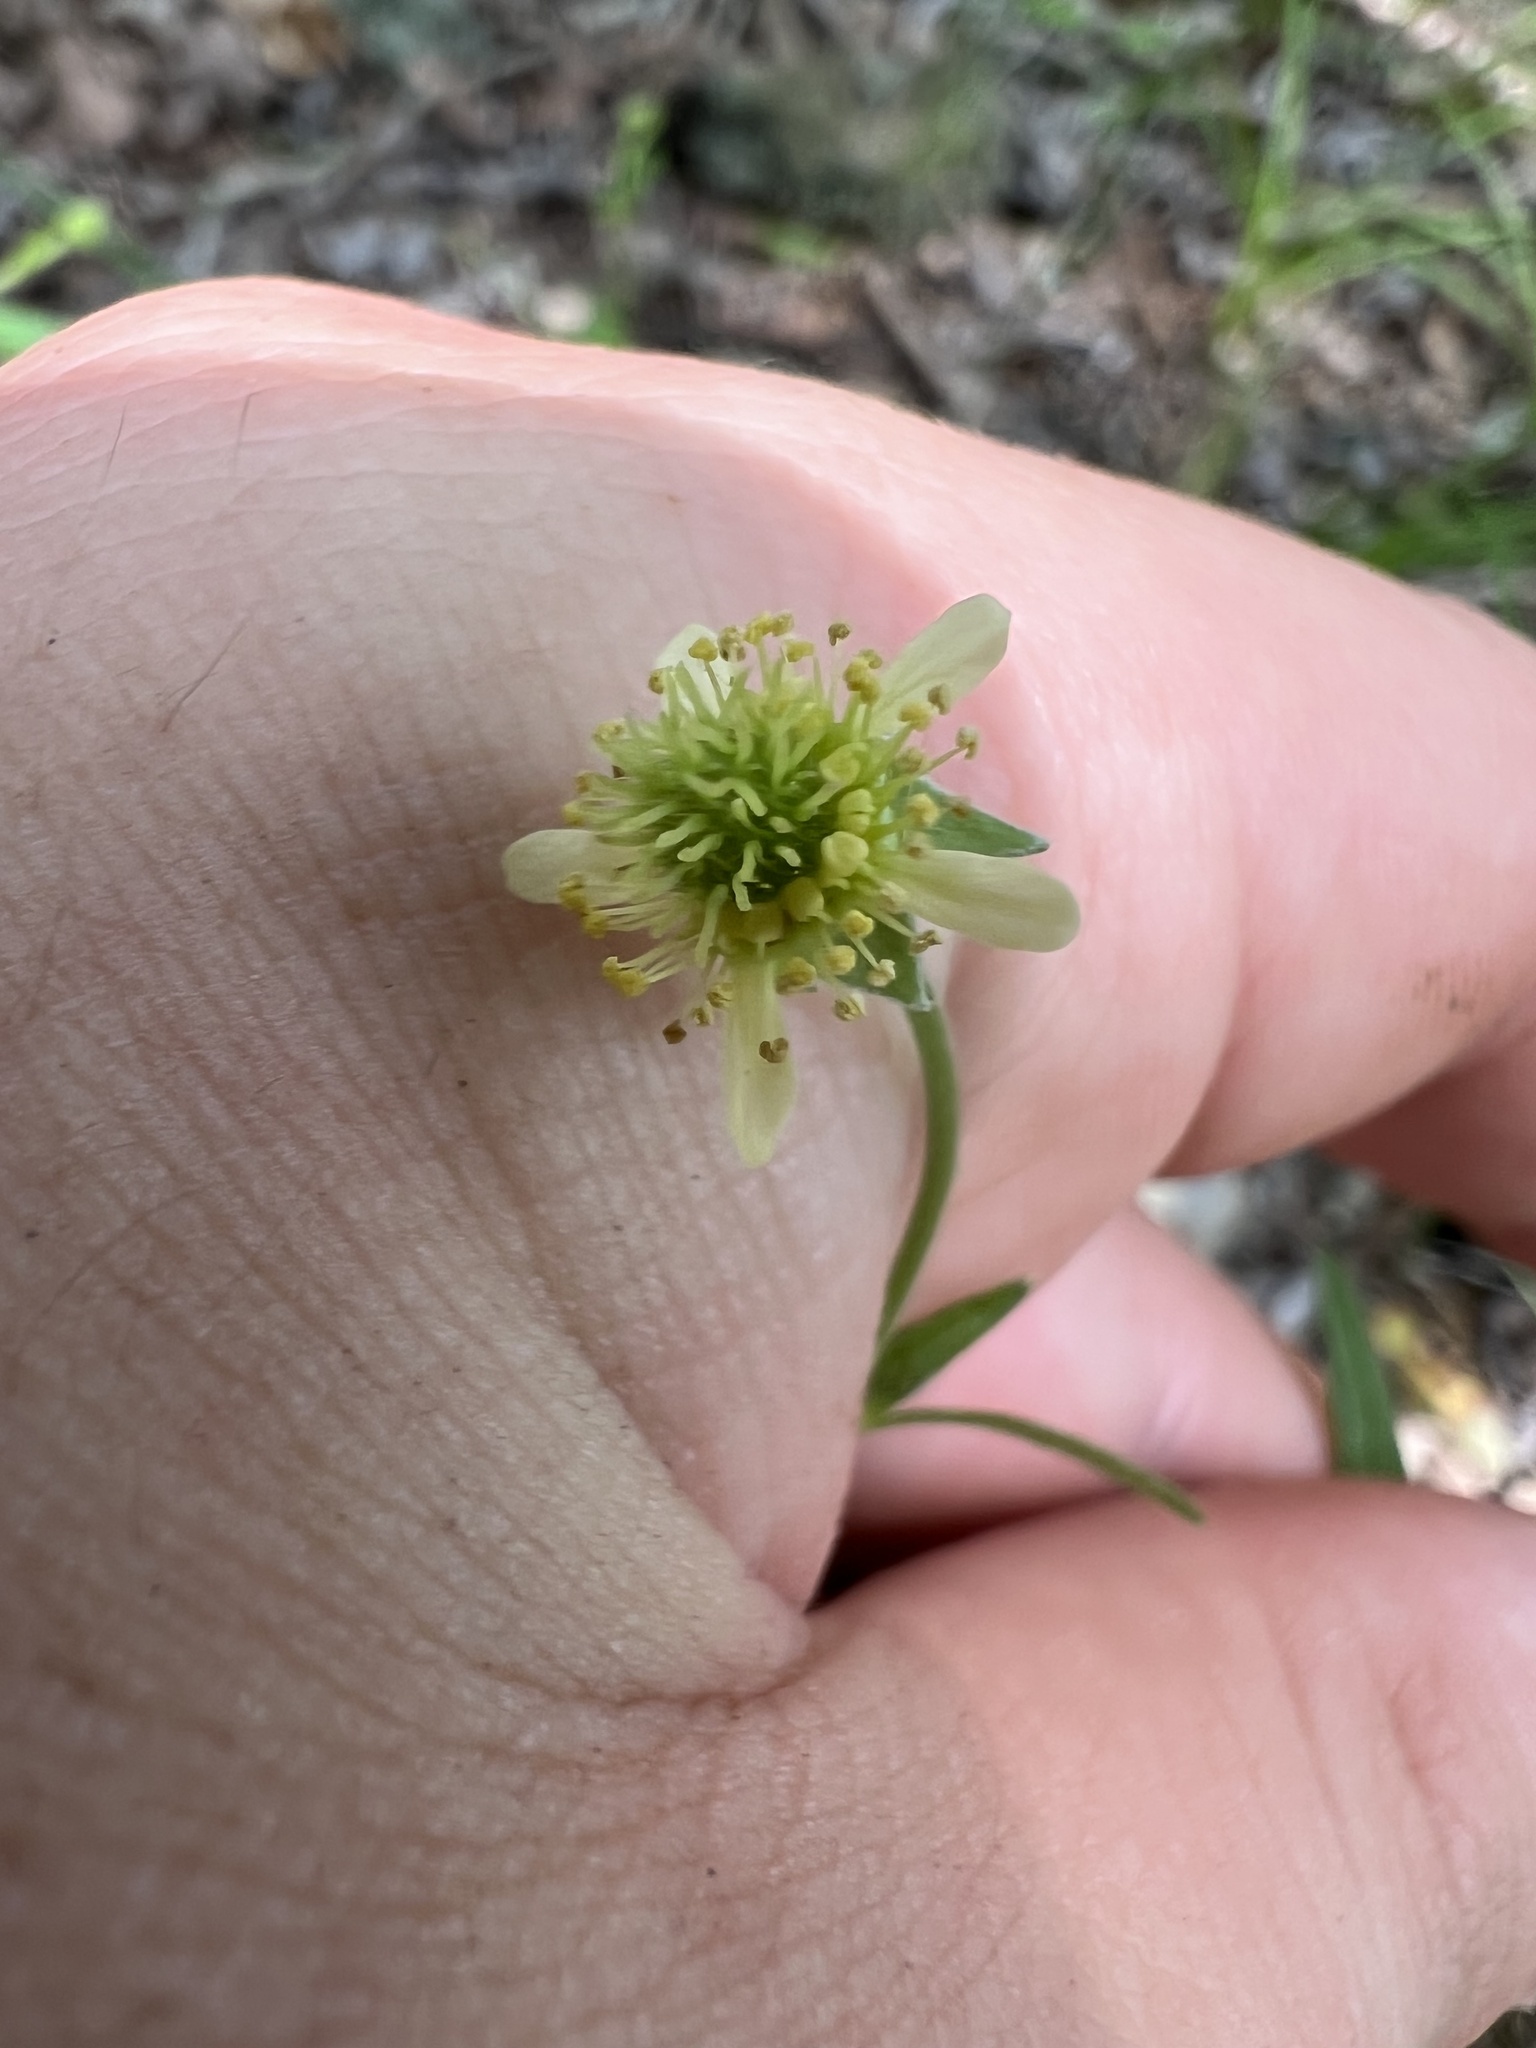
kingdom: Plantae
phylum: Tracheophyta
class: Magnoliopsida
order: Rosales
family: Rosaceae
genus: Geum
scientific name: Geum virginianum
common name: Cream avens
